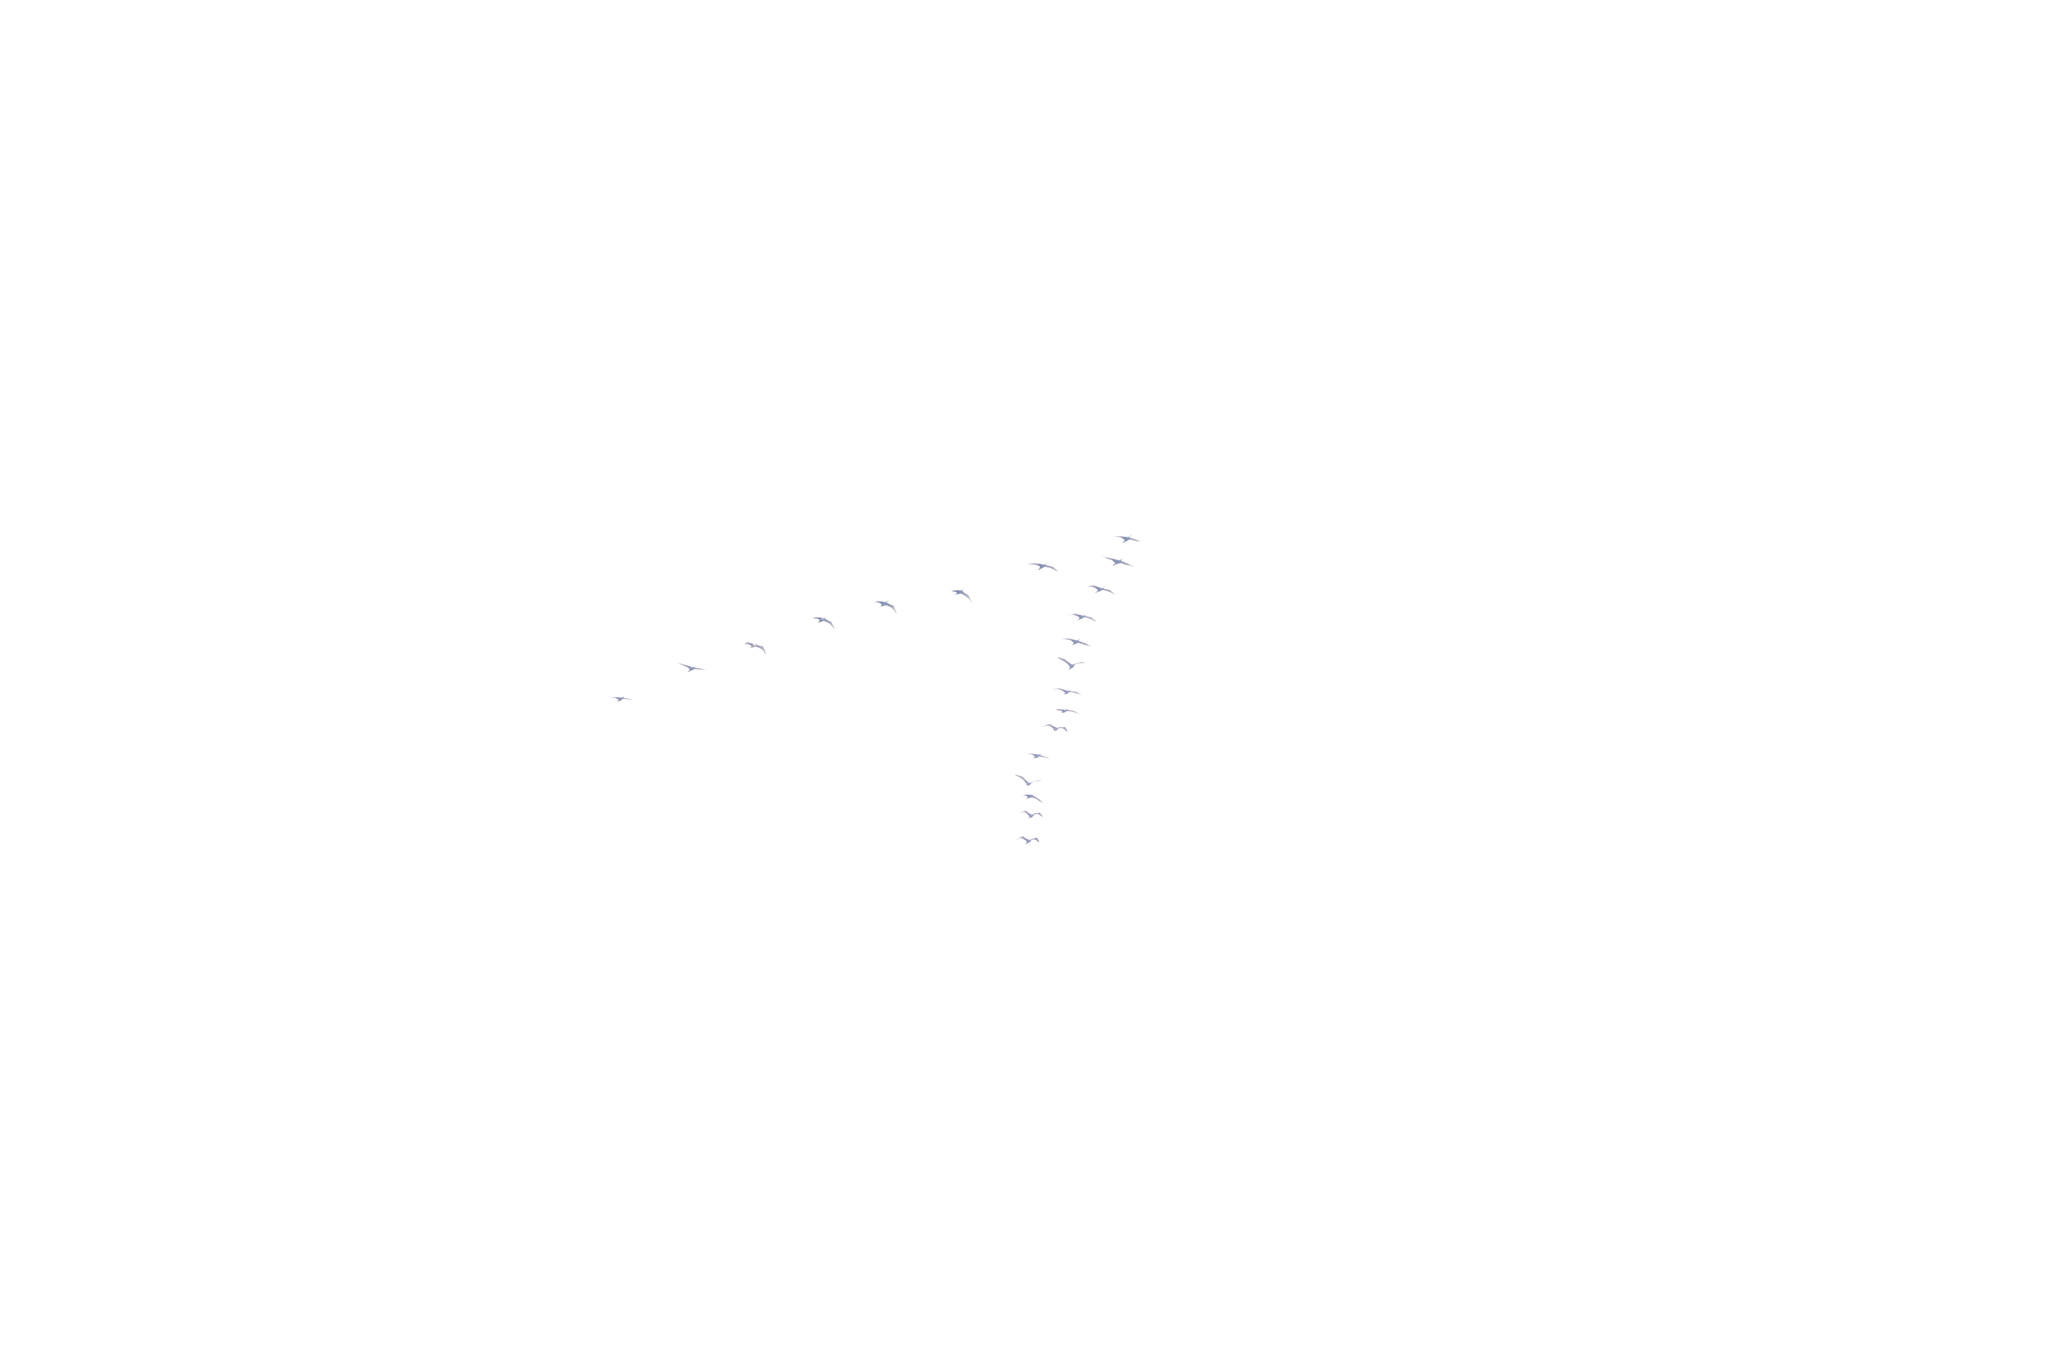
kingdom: Animalia
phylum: Chordata
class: Aves
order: Anseriformes
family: Anatidae
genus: Branta
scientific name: Branta canadensis
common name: Canada goose
